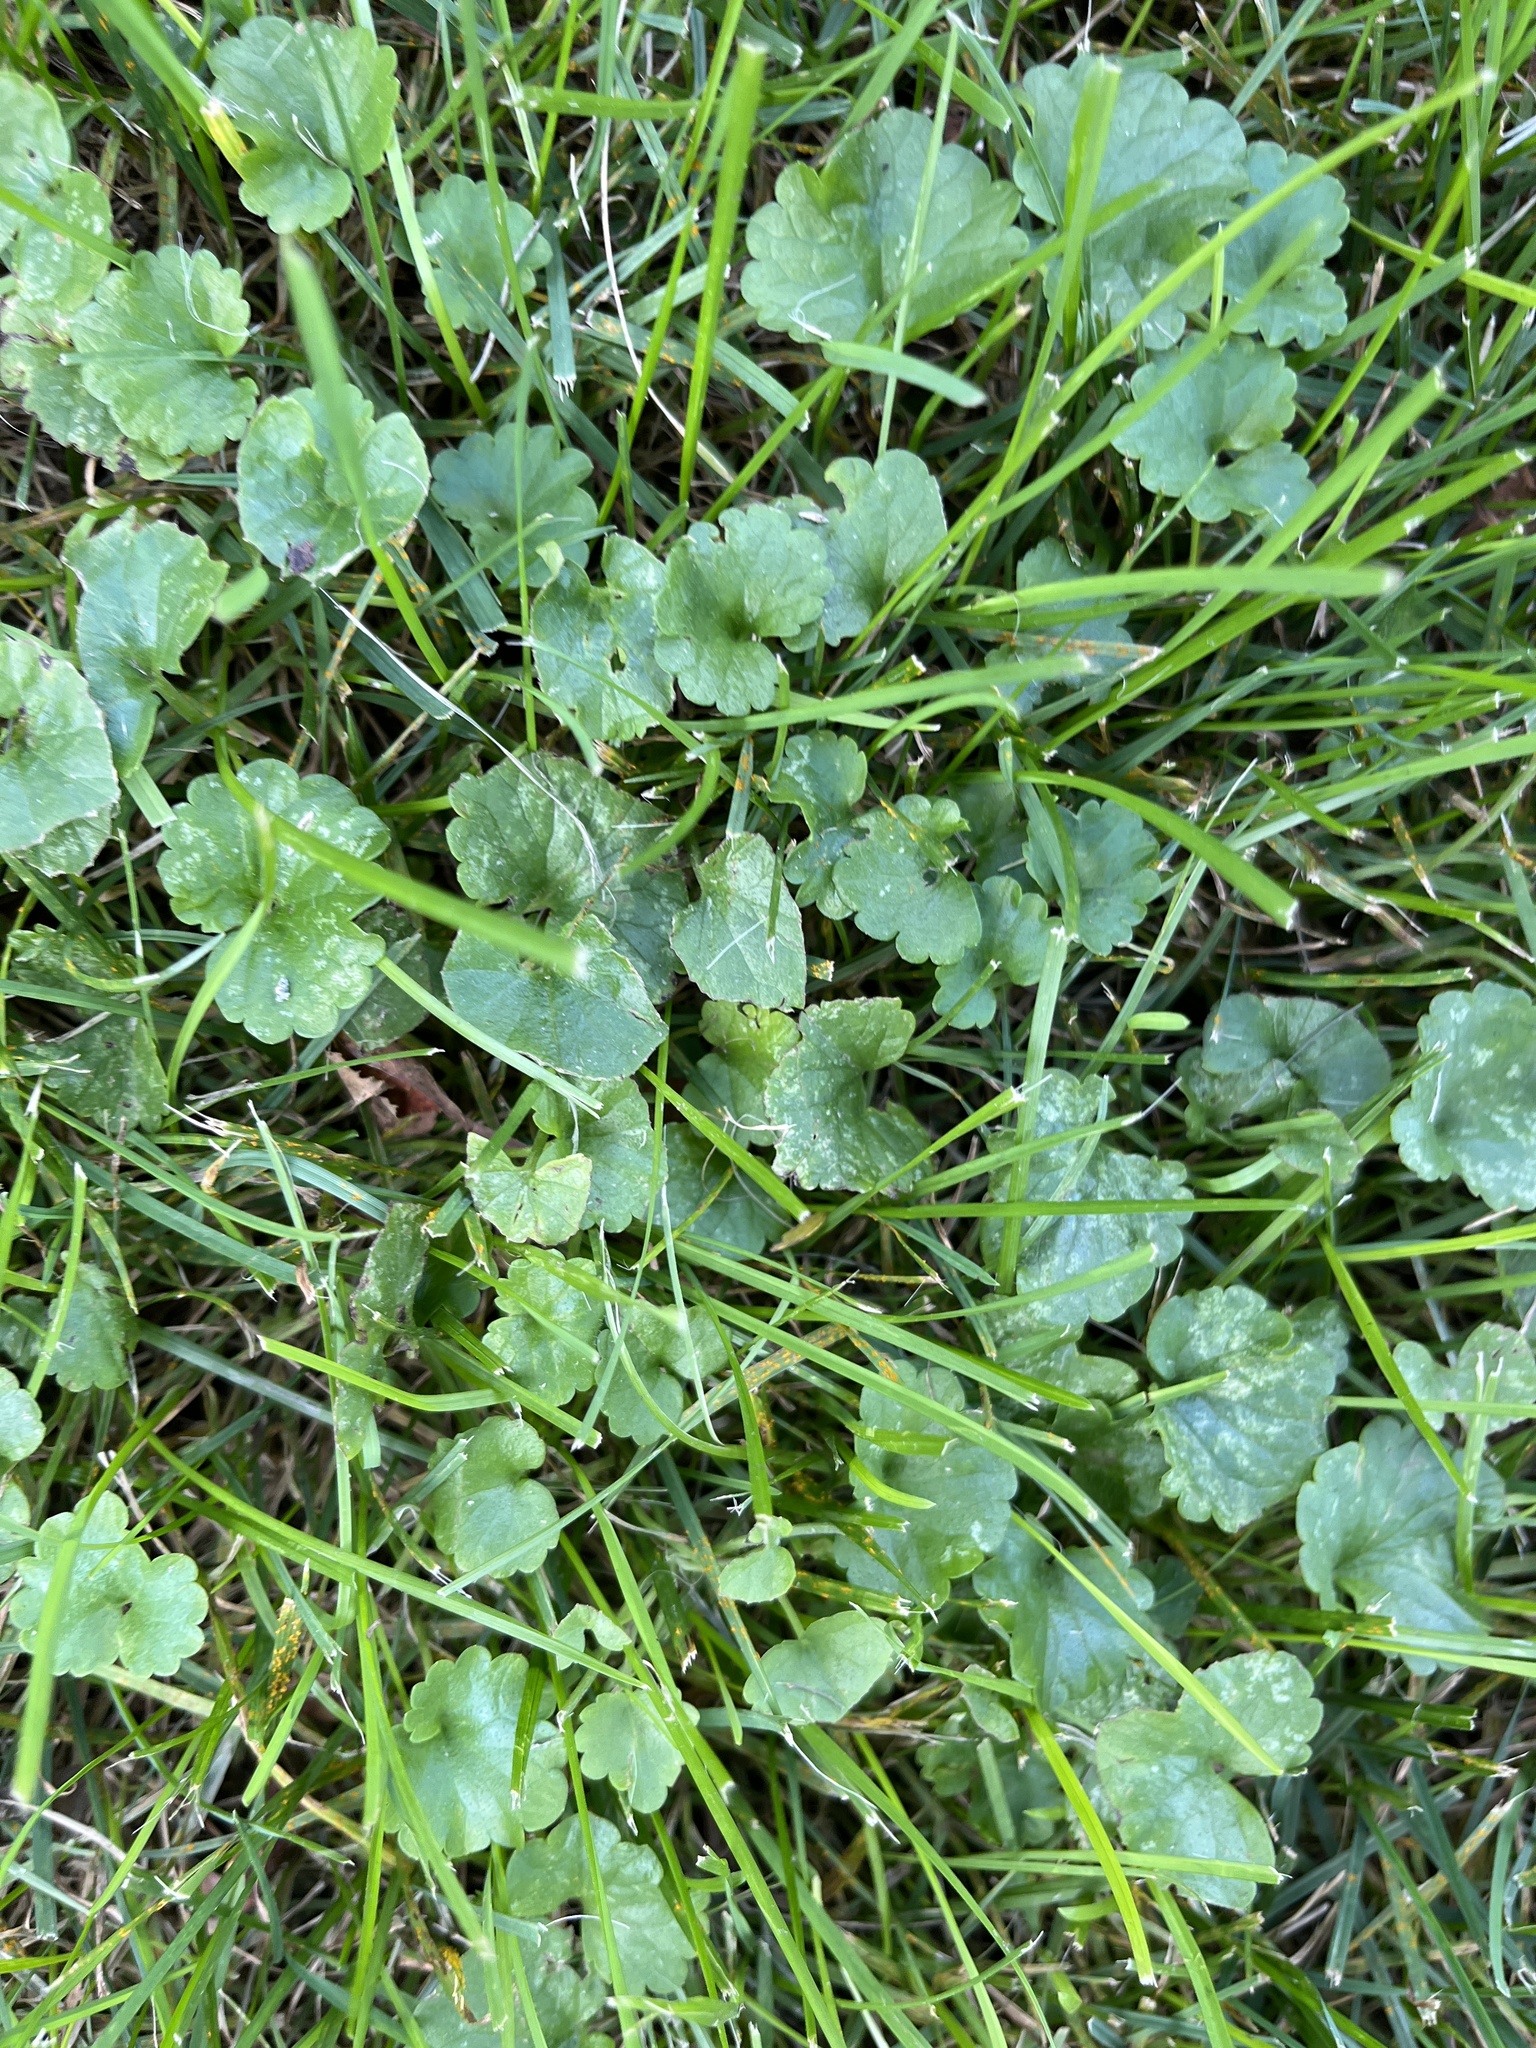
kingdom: Plantae
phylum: Tracheophyta
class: Magnoliopsida
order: Lamiales
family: Lamiaceae
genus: Glechoma
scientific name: Glechoma hederacea
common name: Ground ivy
